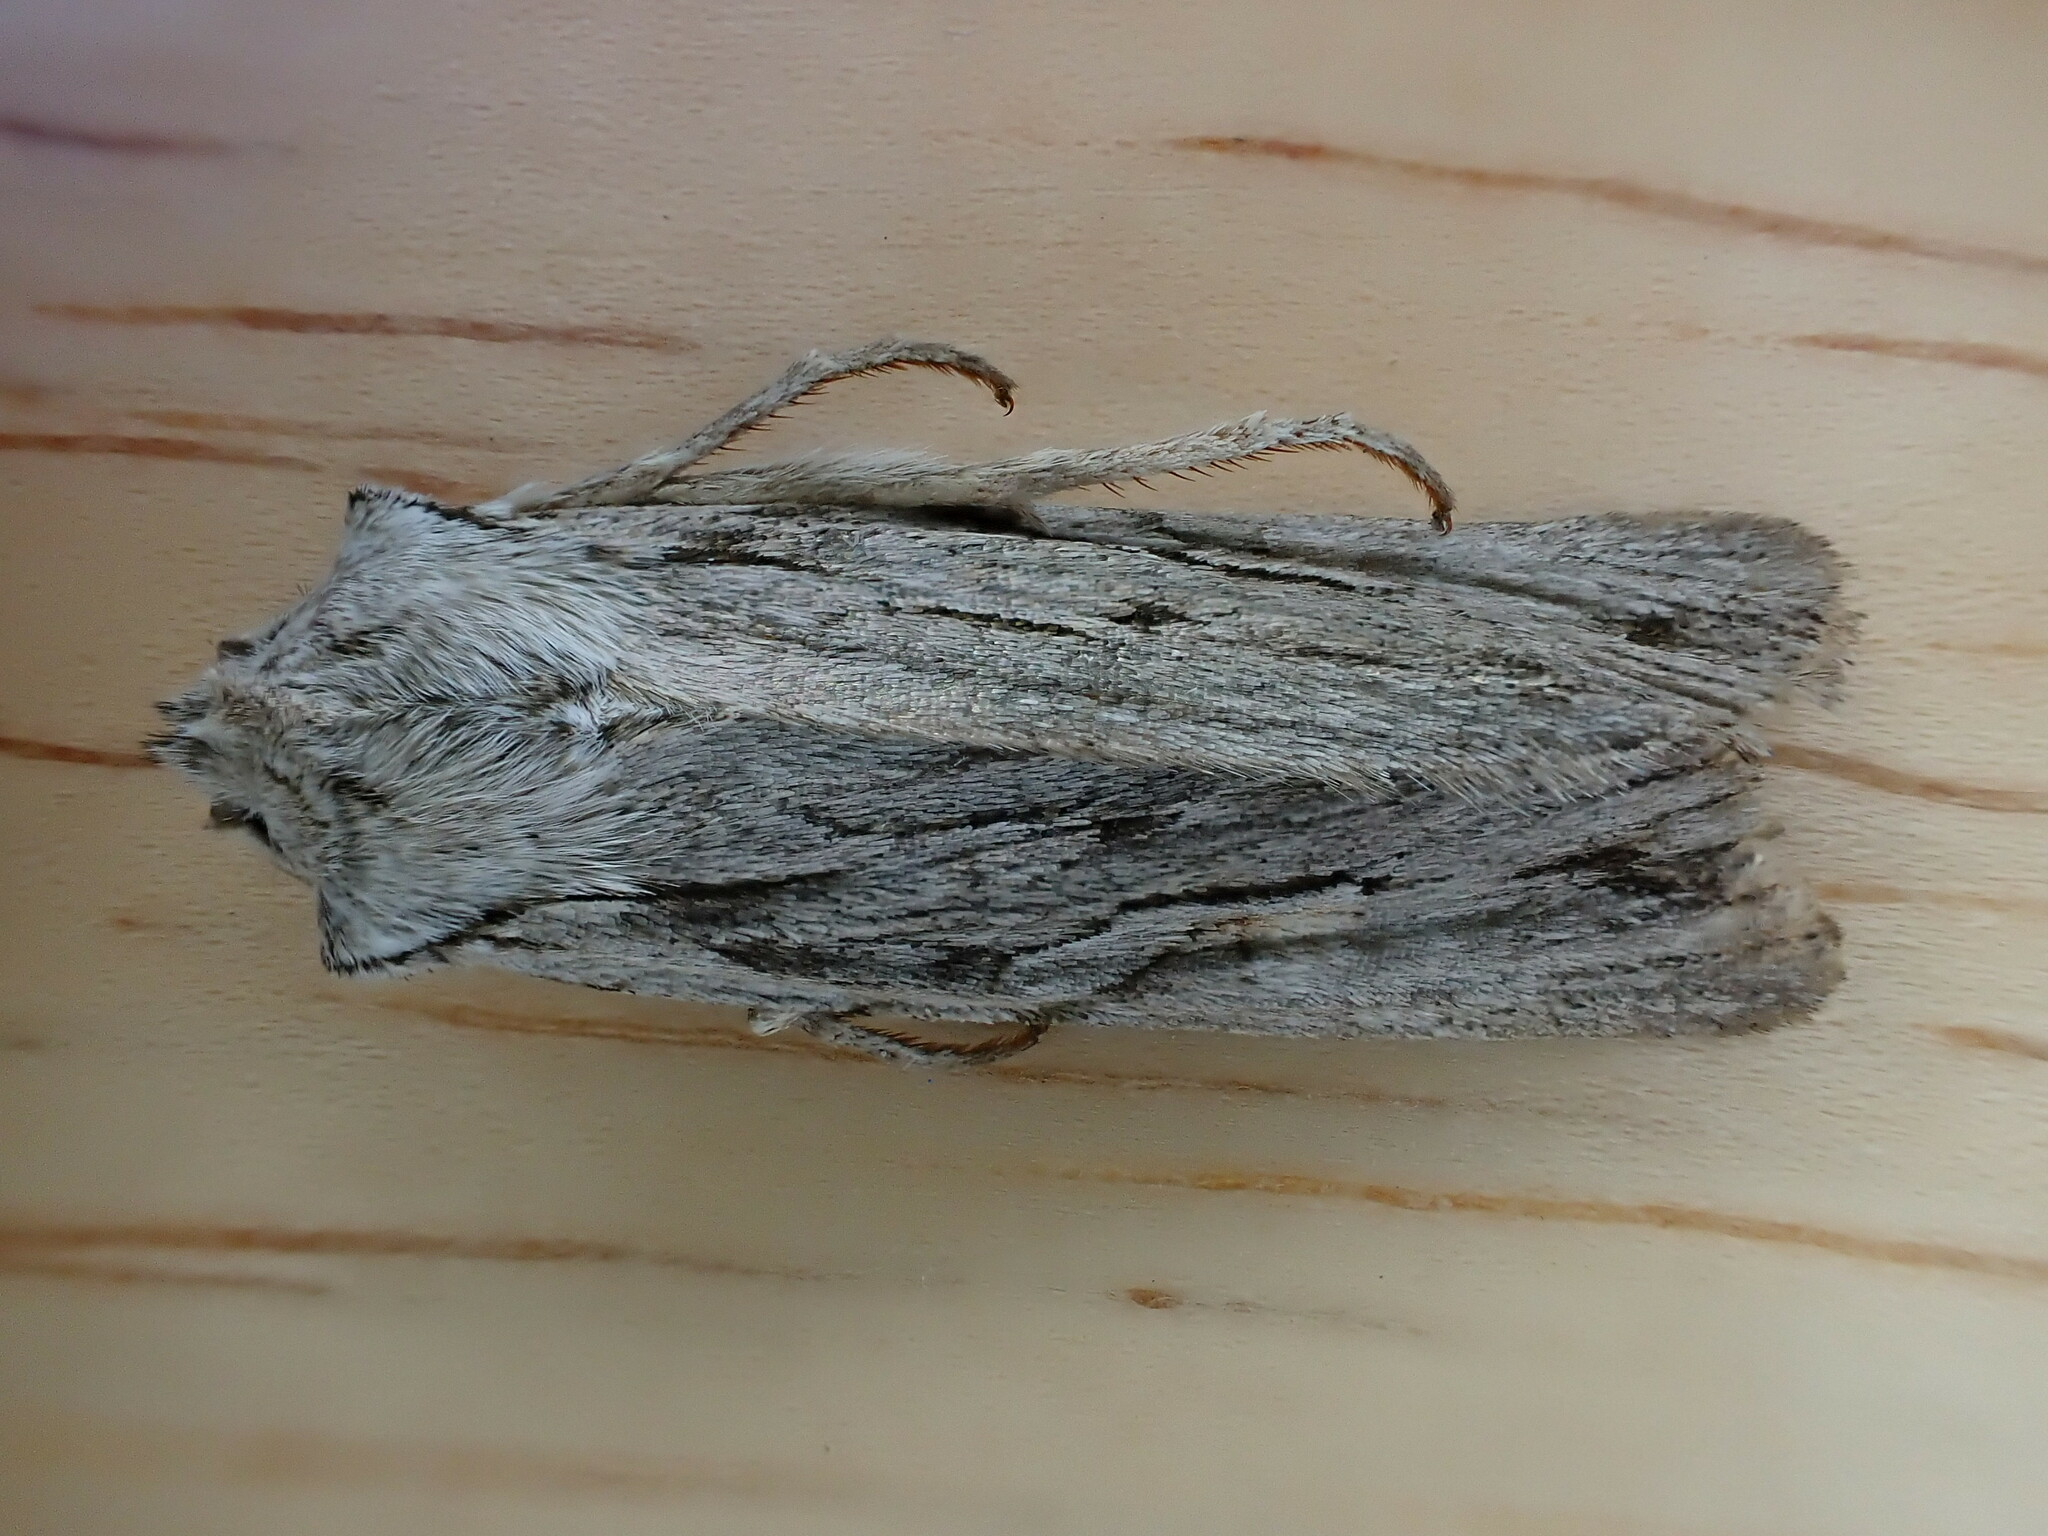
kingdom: Animalia
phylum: Arthropoda
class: Insecta
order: Lepidoptera
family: Noctuidae
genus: Lithophane
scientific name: Lithophane leautieri
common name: Blair's shoulder-knot
